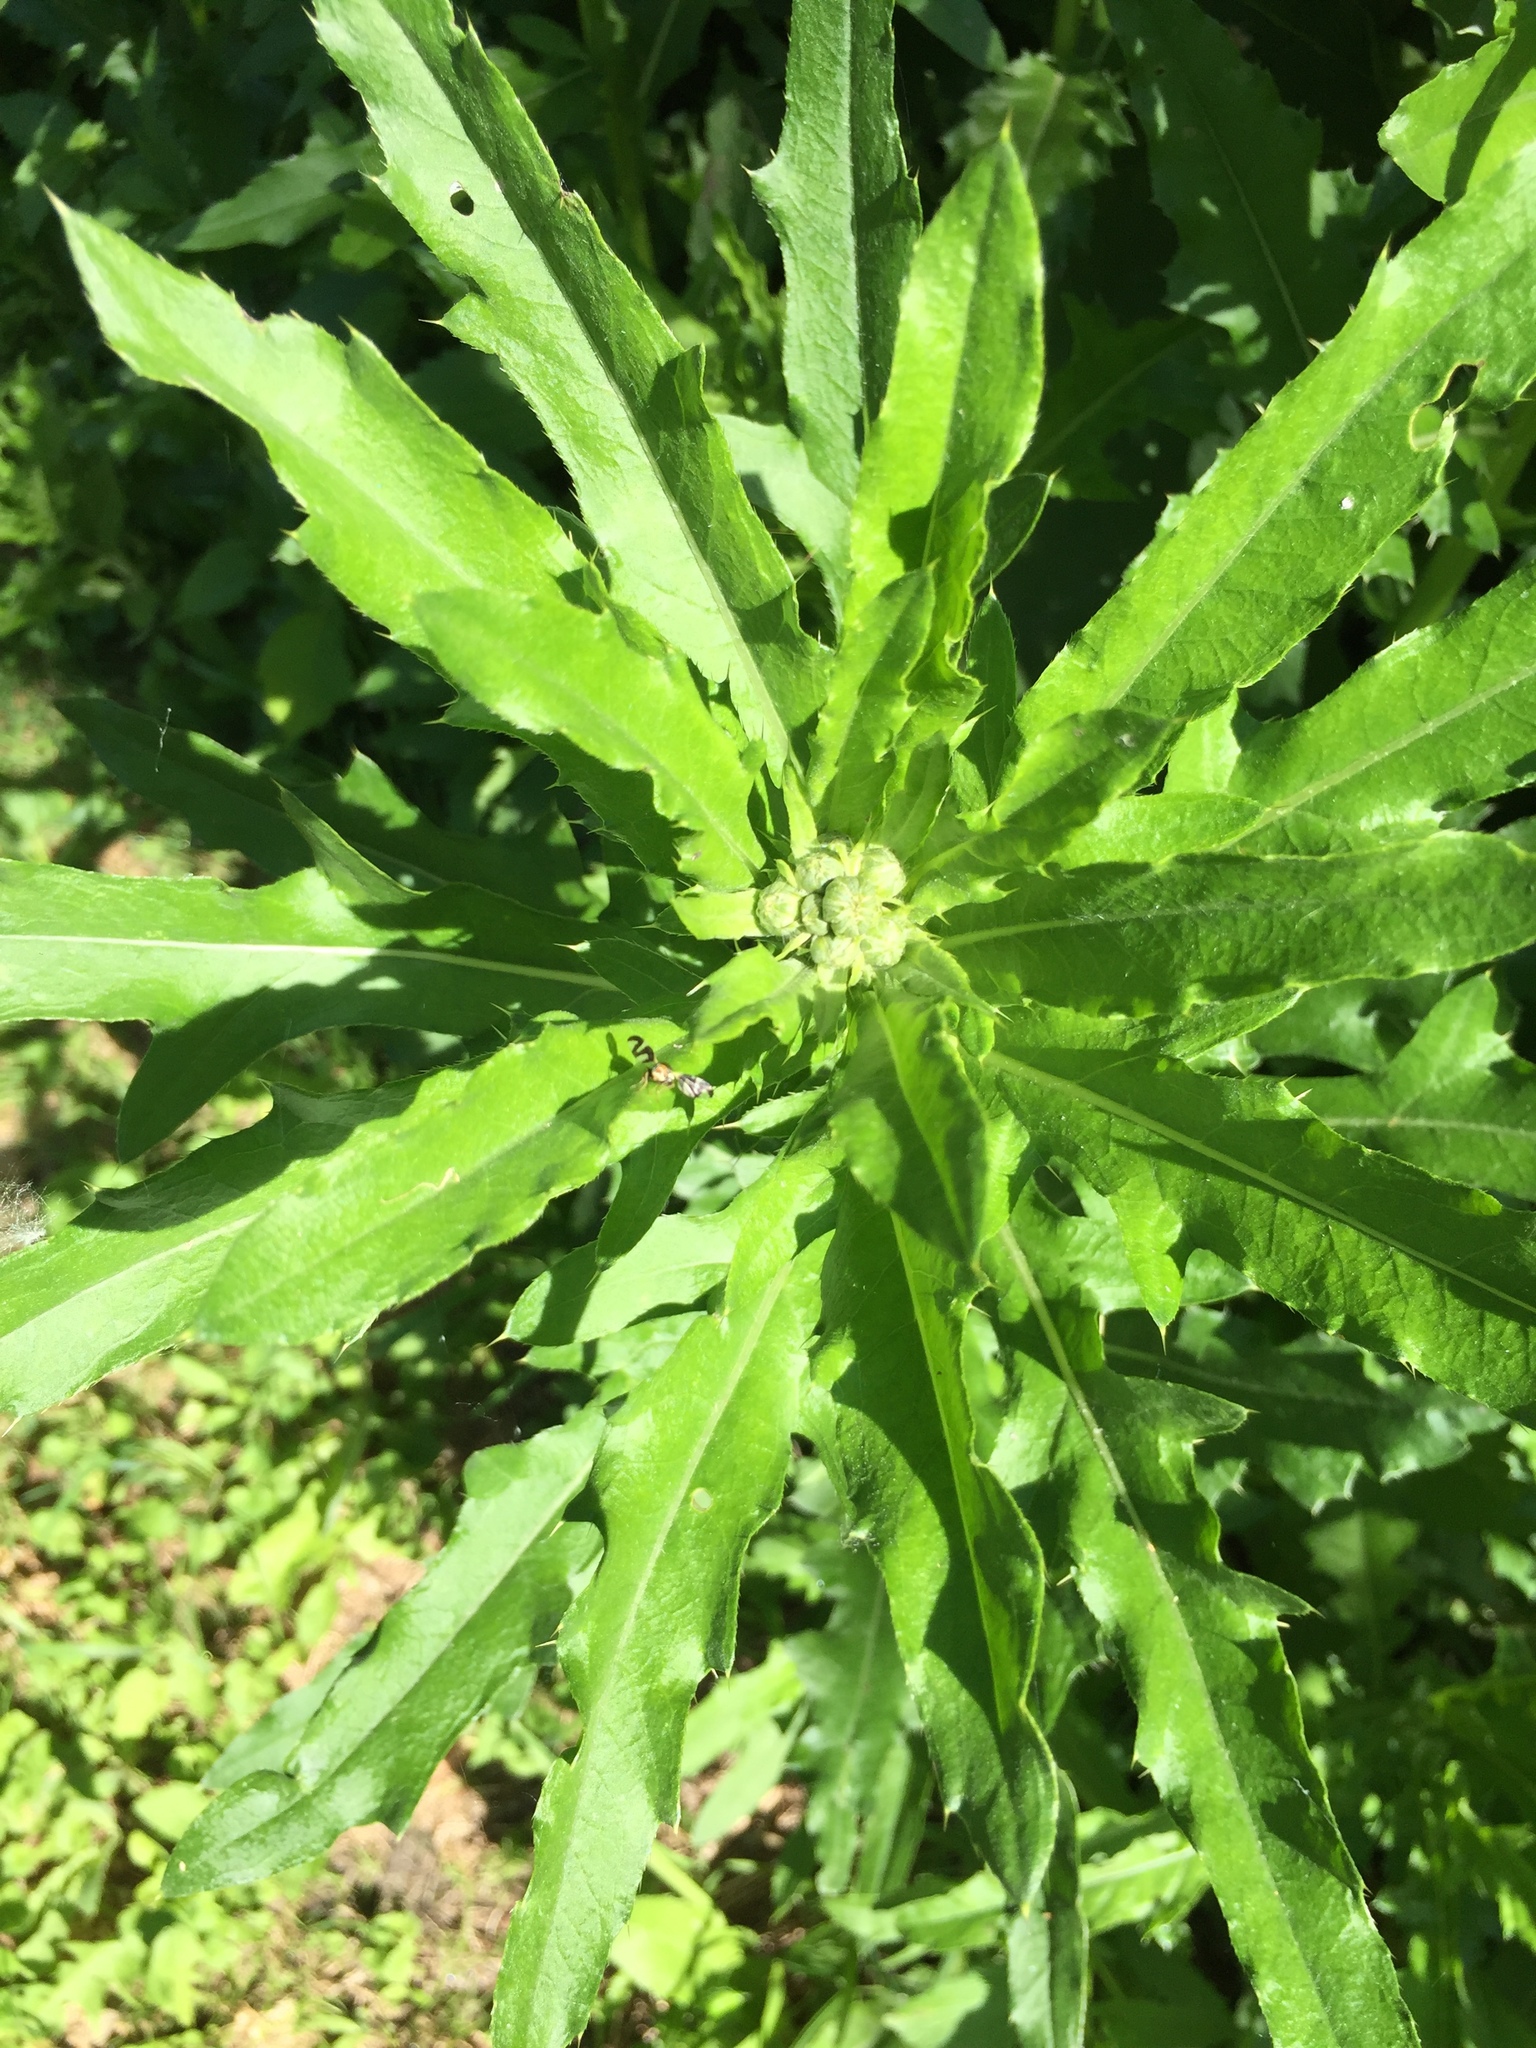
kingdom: Plantae
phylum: Tracheophyta
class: Magnoliopsida
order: Asterales
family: Asteraceae
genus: Cirsium
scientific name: Cirsium arvense
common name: Creeping thistle
